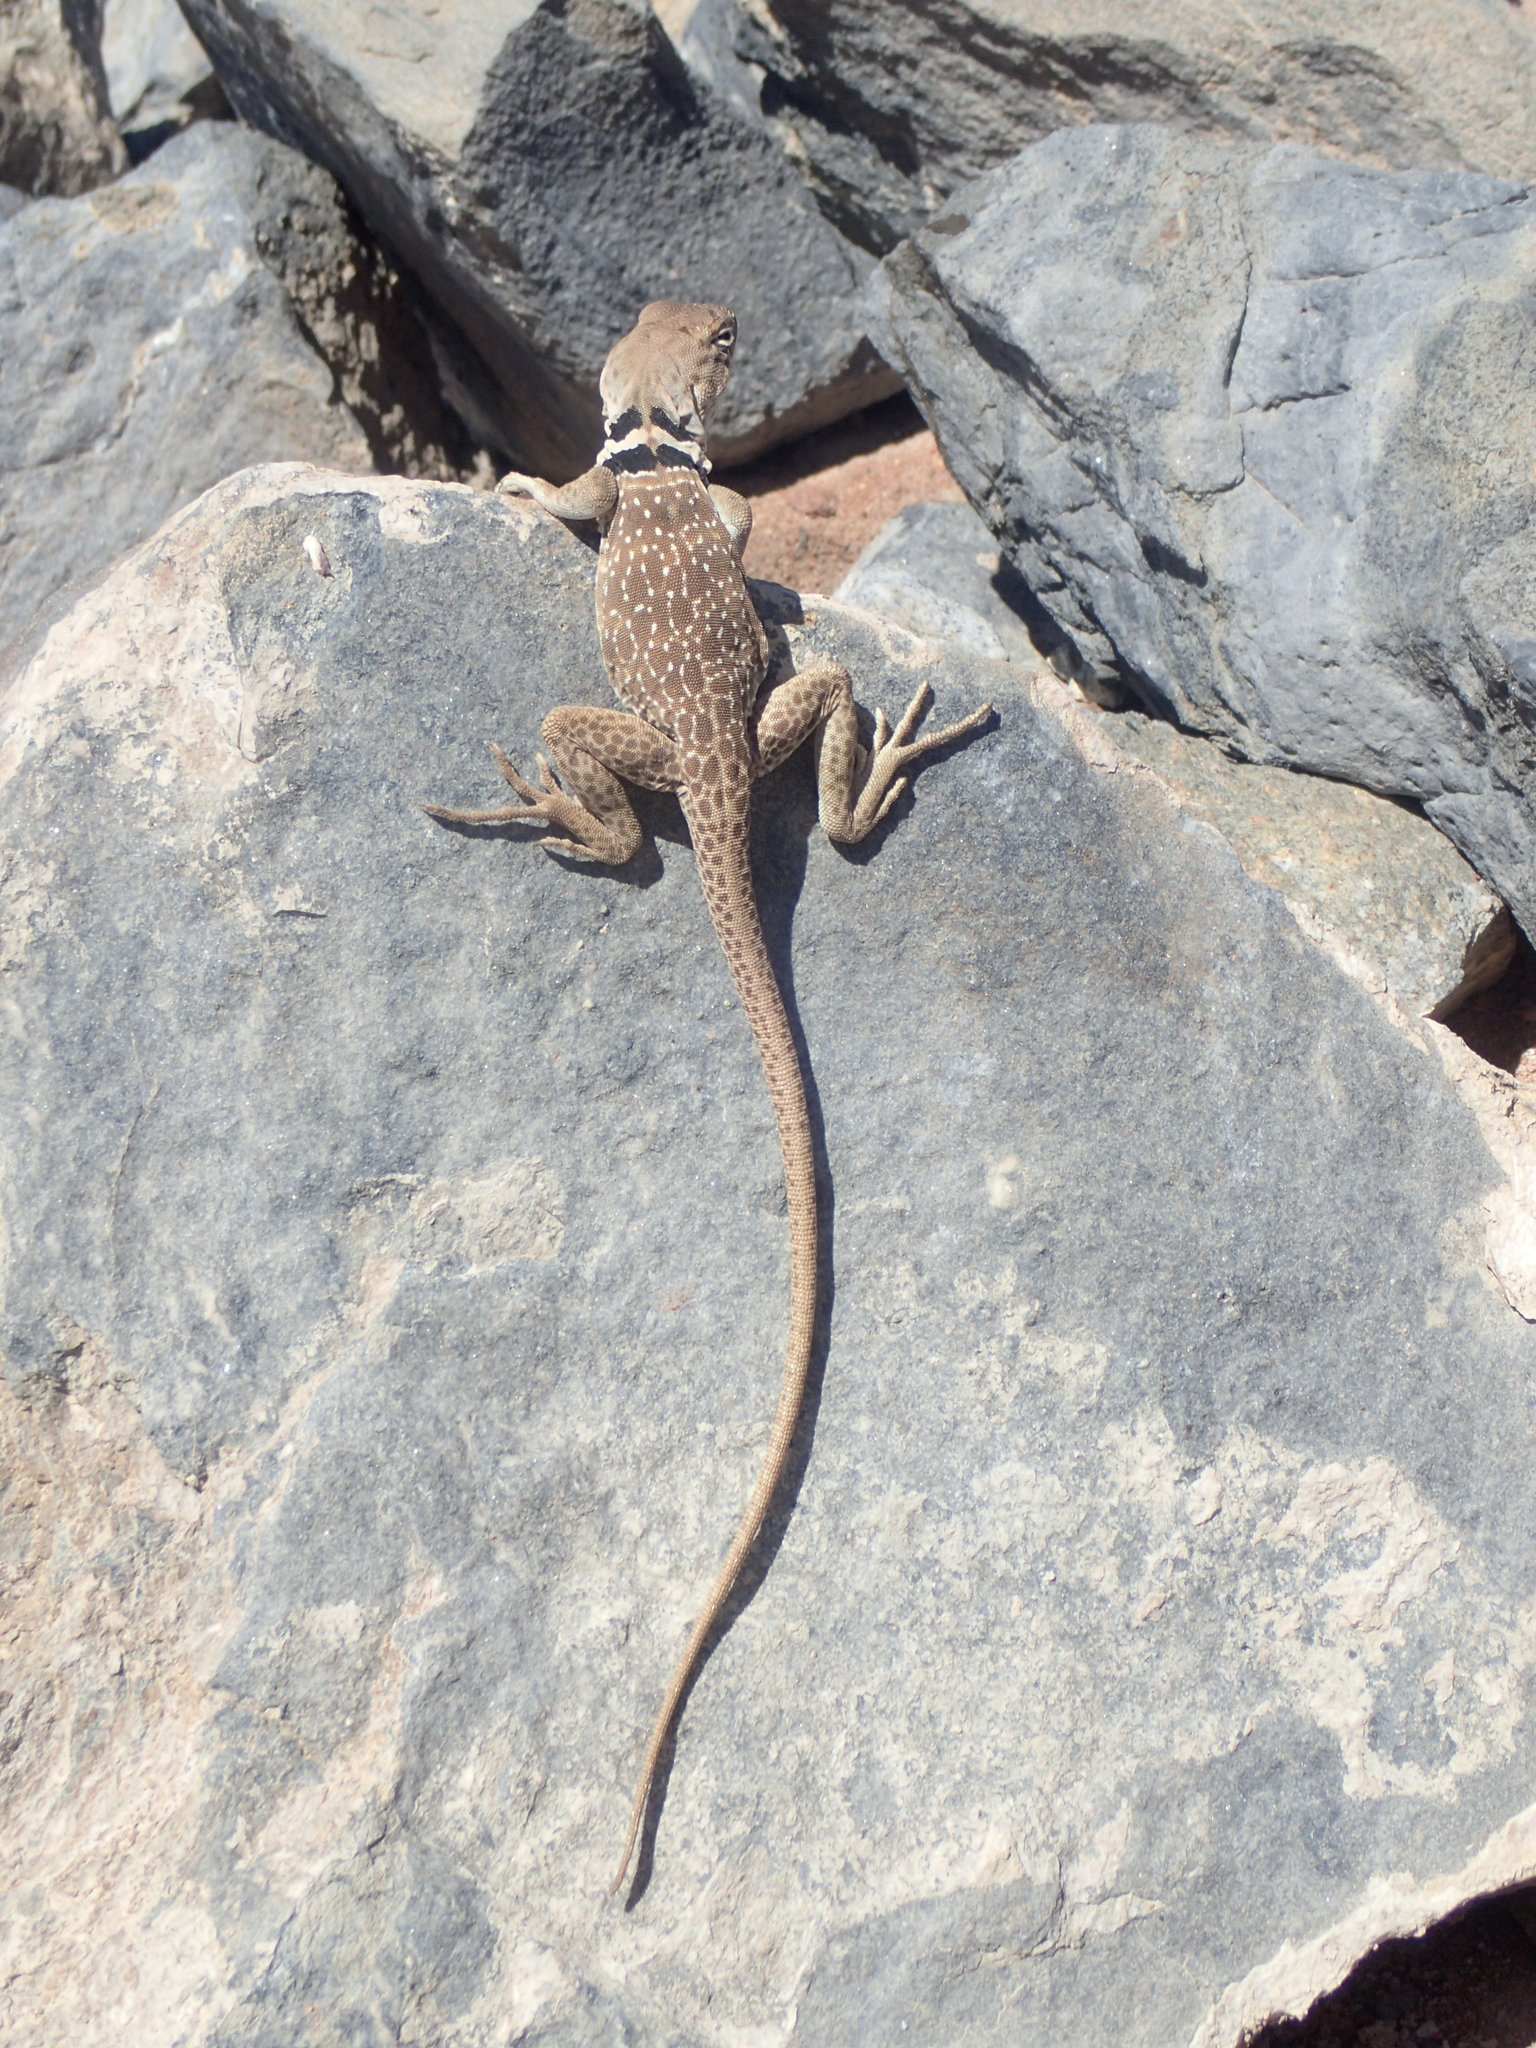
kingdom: Animalia
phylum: Chordata
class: Squamata
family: Crotaphytidae
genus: Crotaphytus
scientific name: Crotaphytus bicinctores
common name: Mojave black-collared lizard
